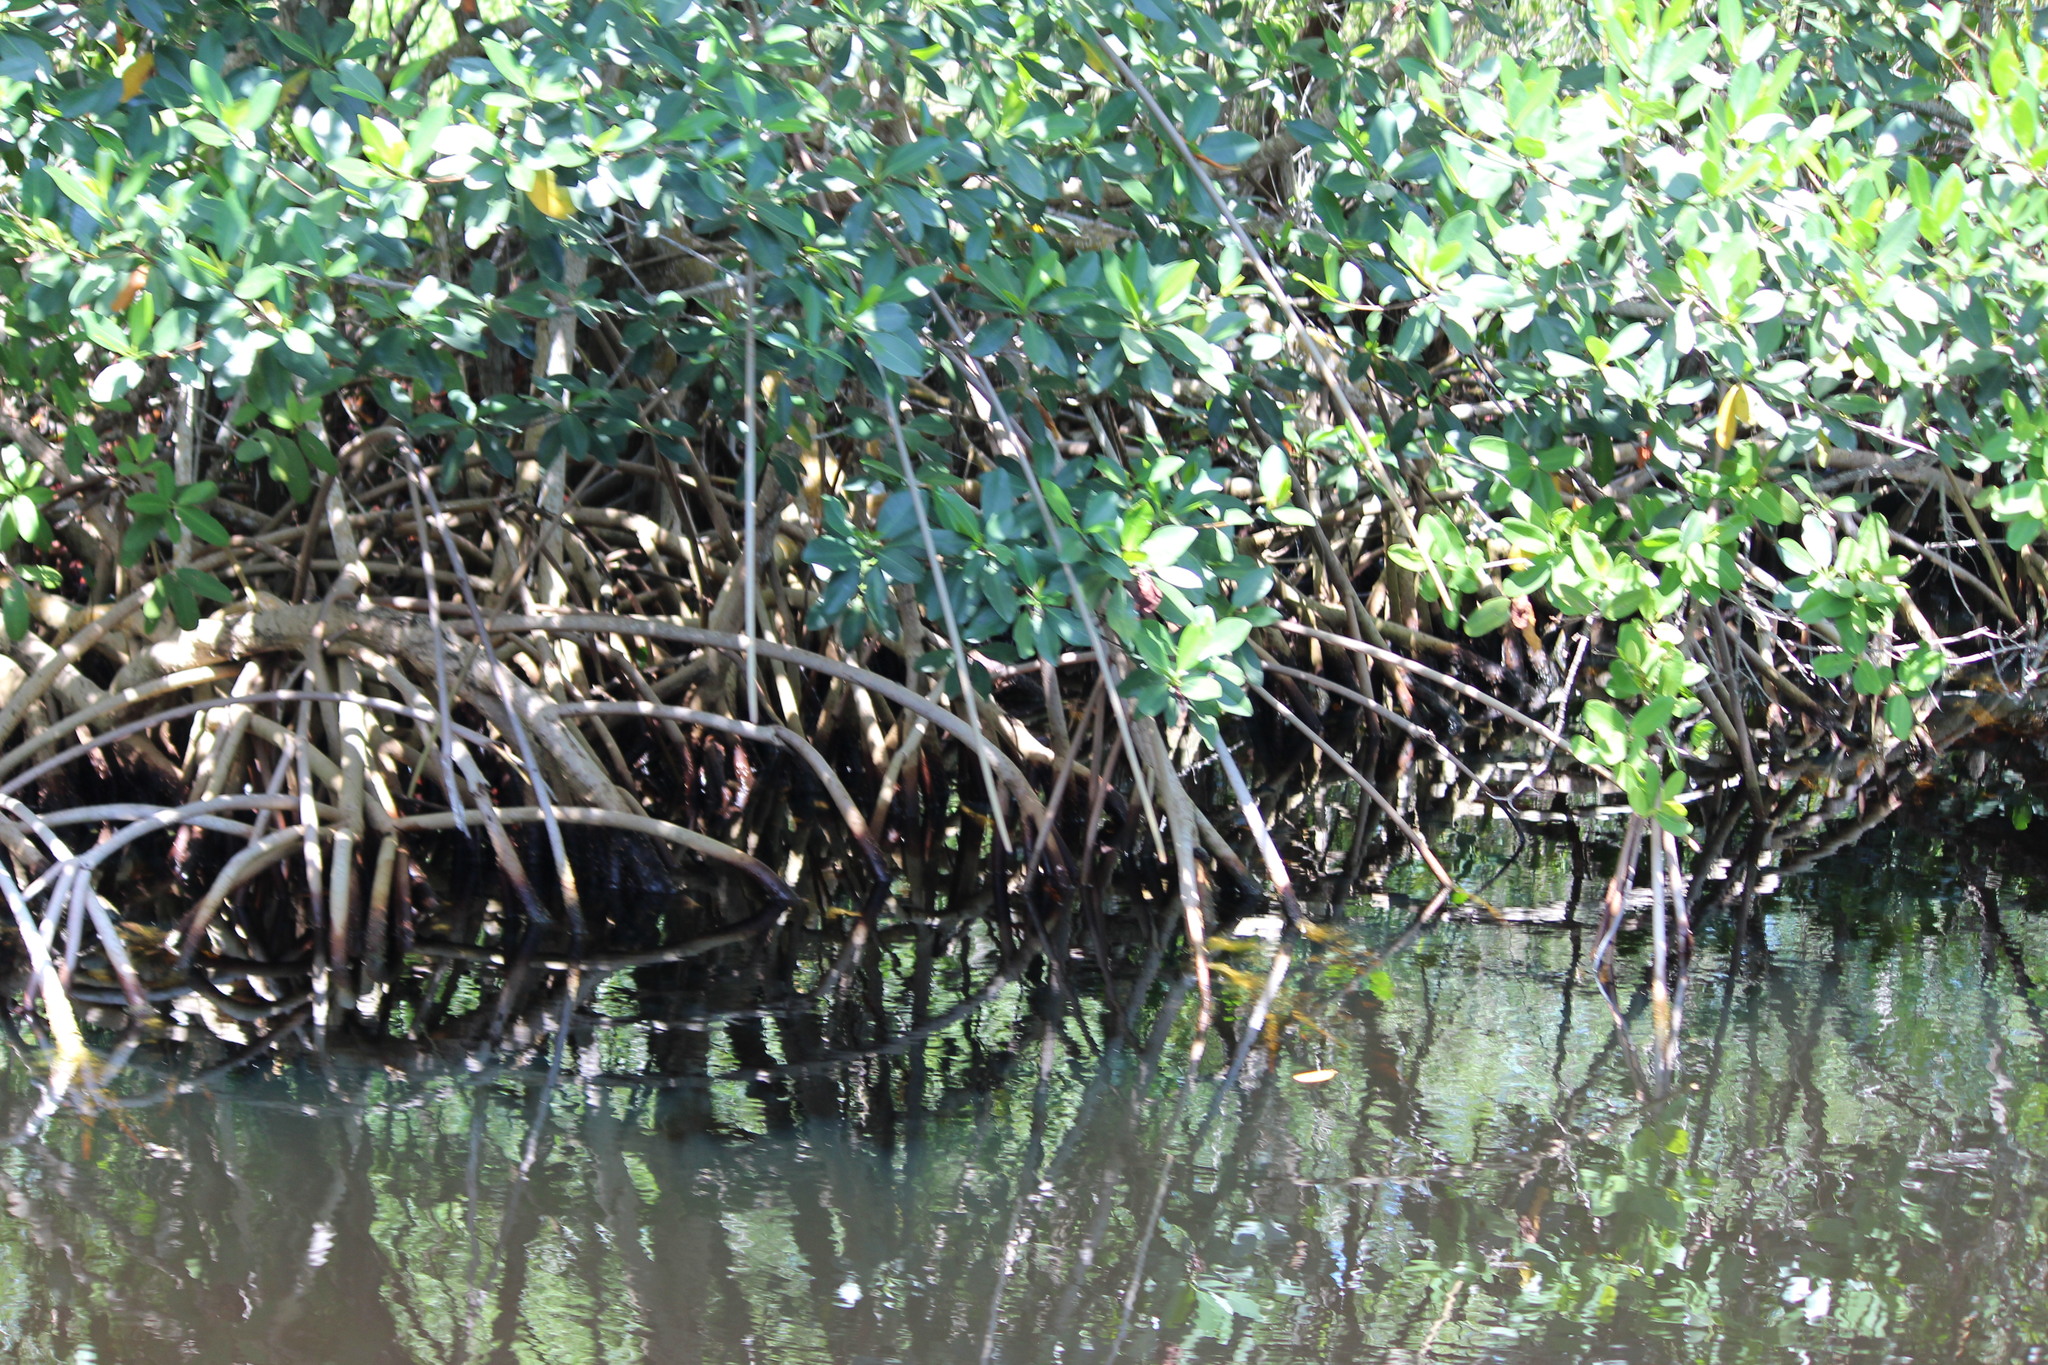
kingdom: Plantae
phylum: Tracheophyta
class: Magnoliopsida
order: Malpighiales
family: Rhizophoraceae
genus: Rhizophora
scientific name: Rhizophora mangle
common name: Red mangrove
